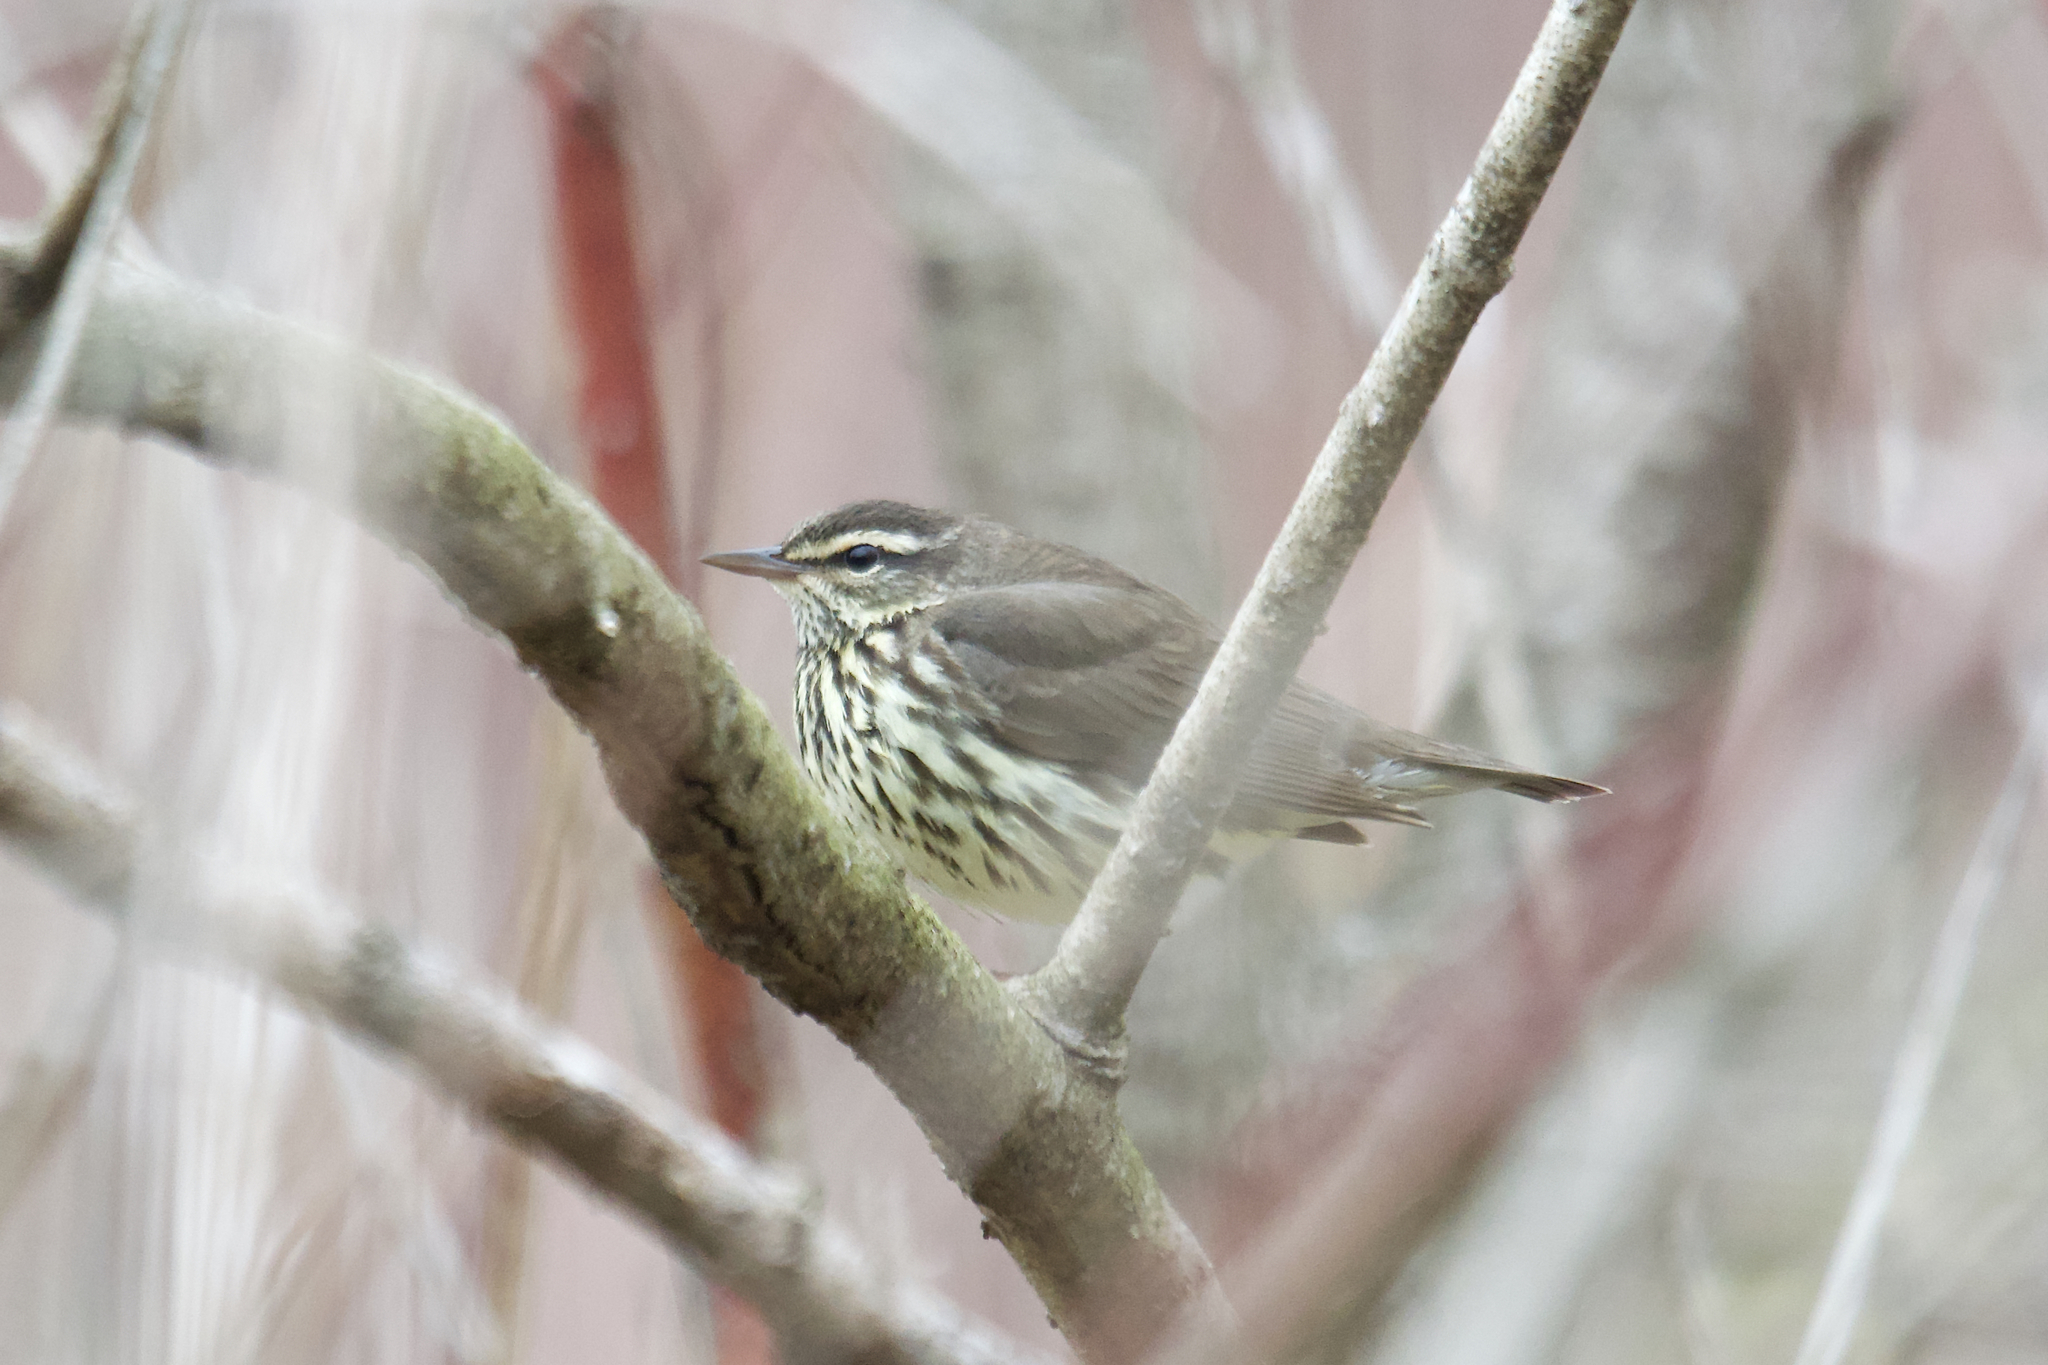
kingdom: Animalia
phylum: Chordata
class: Aves
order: Passeriformes
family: Parulidae
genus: Parkesia
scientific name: Parkesia noveboracensis
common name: Northern waterthrush
